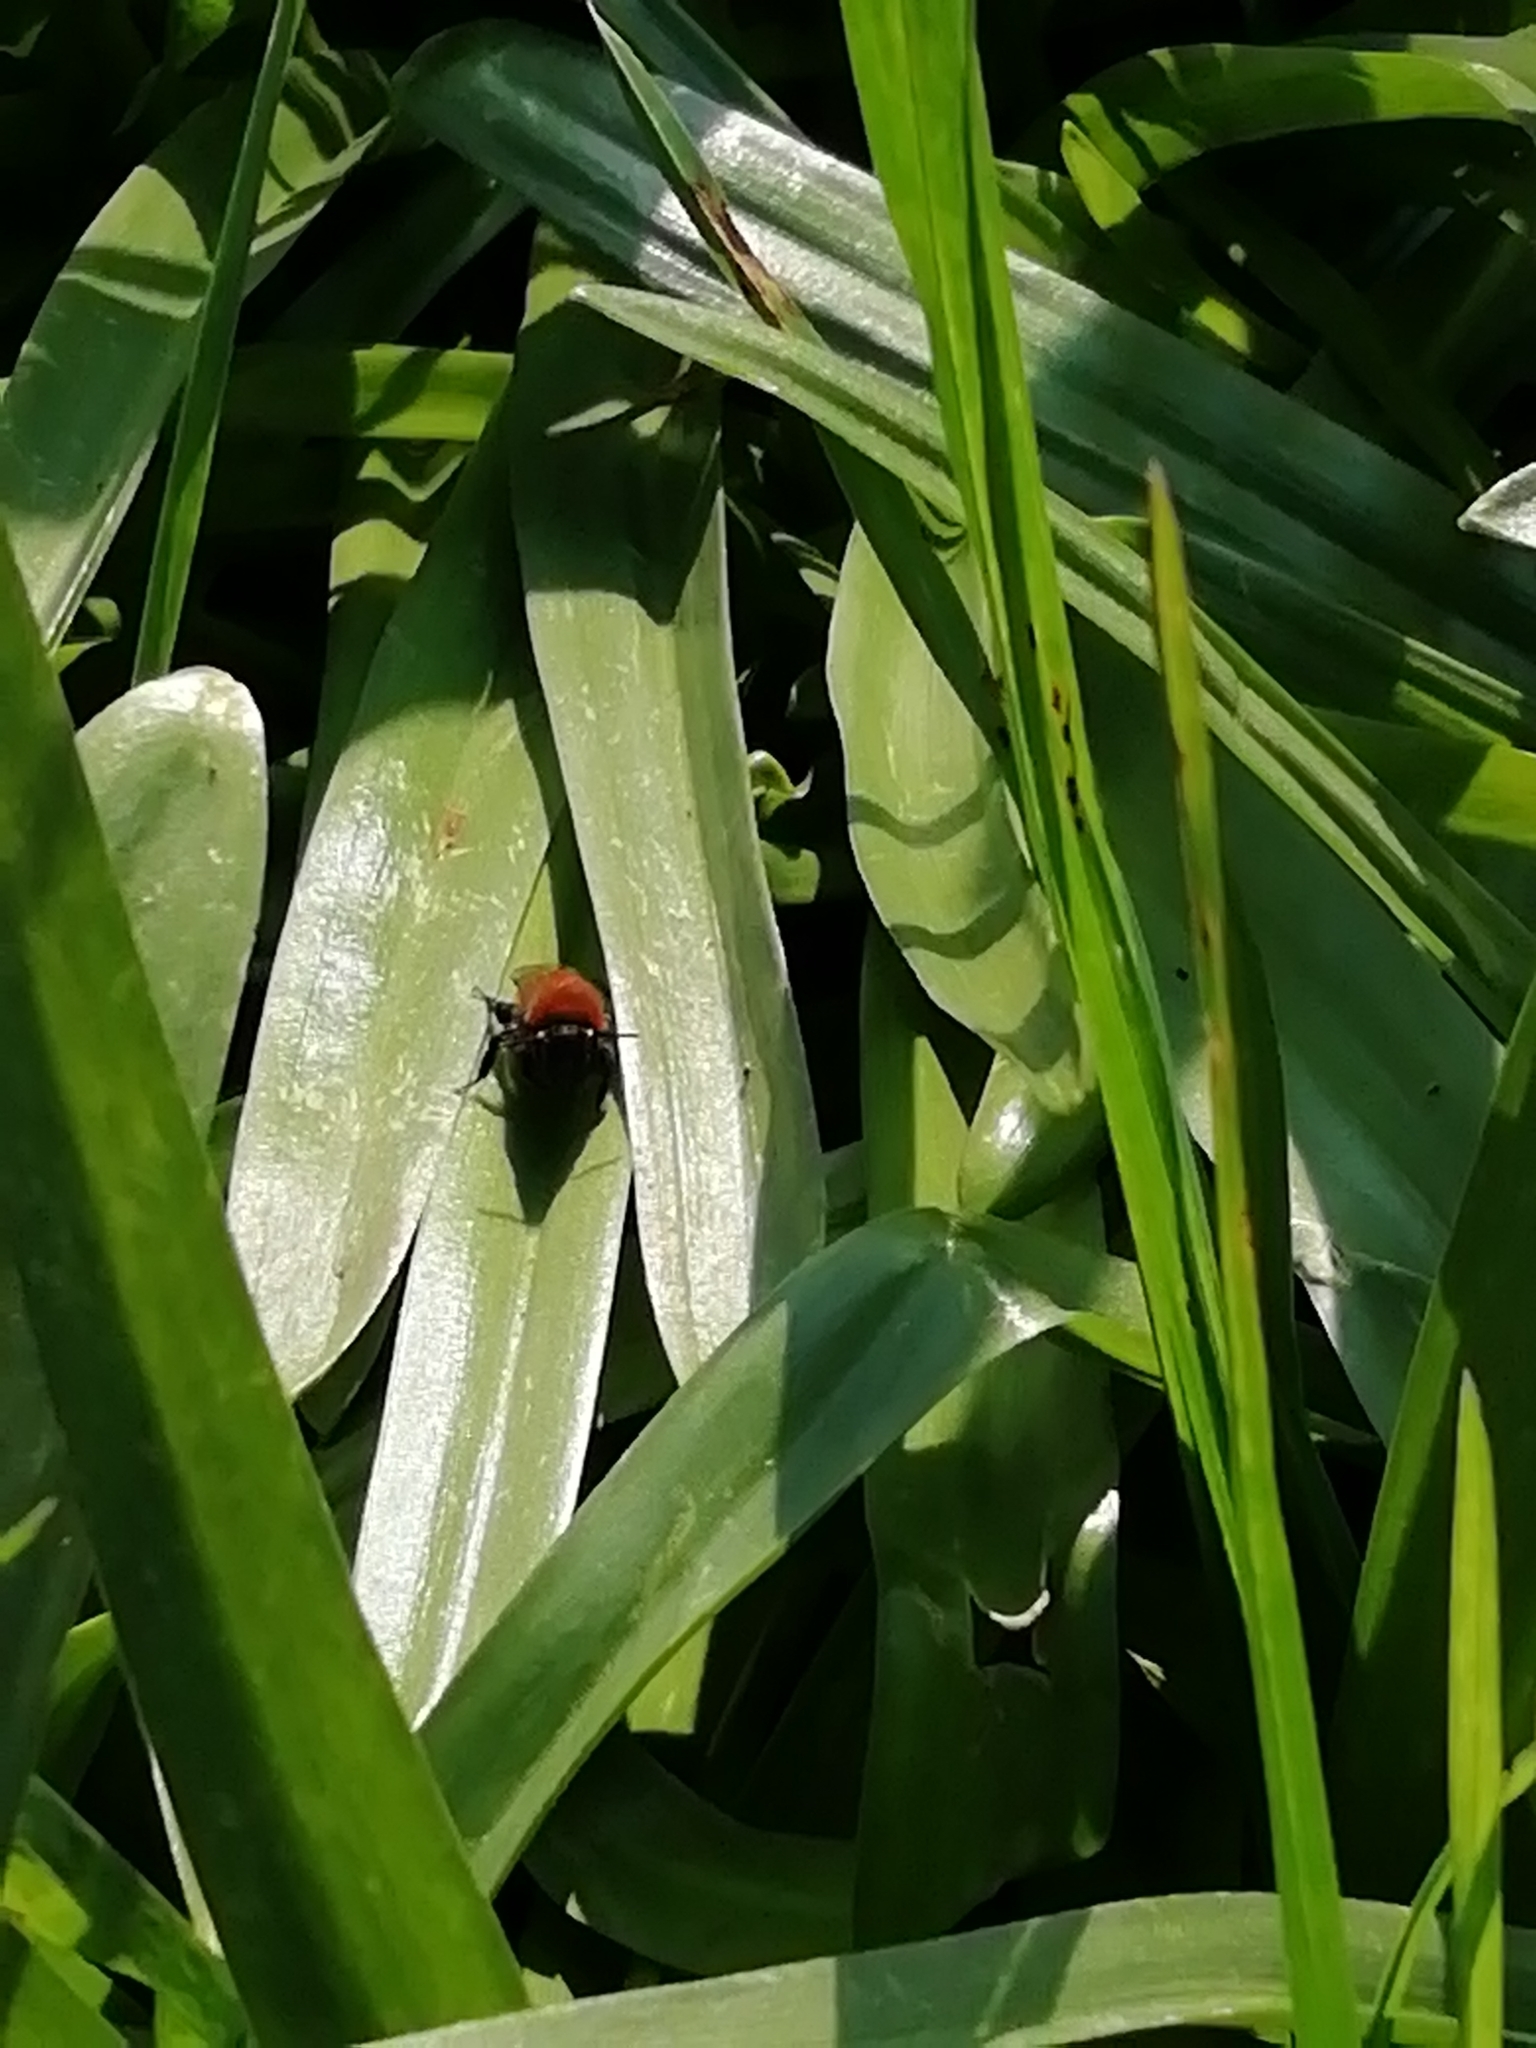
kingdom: Animalia
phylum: Arthropoda
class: Insecta
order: Hymenoptera
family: Andrenidae
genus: Andrena
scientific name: Andrena fulva
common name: Tawny mining bee
